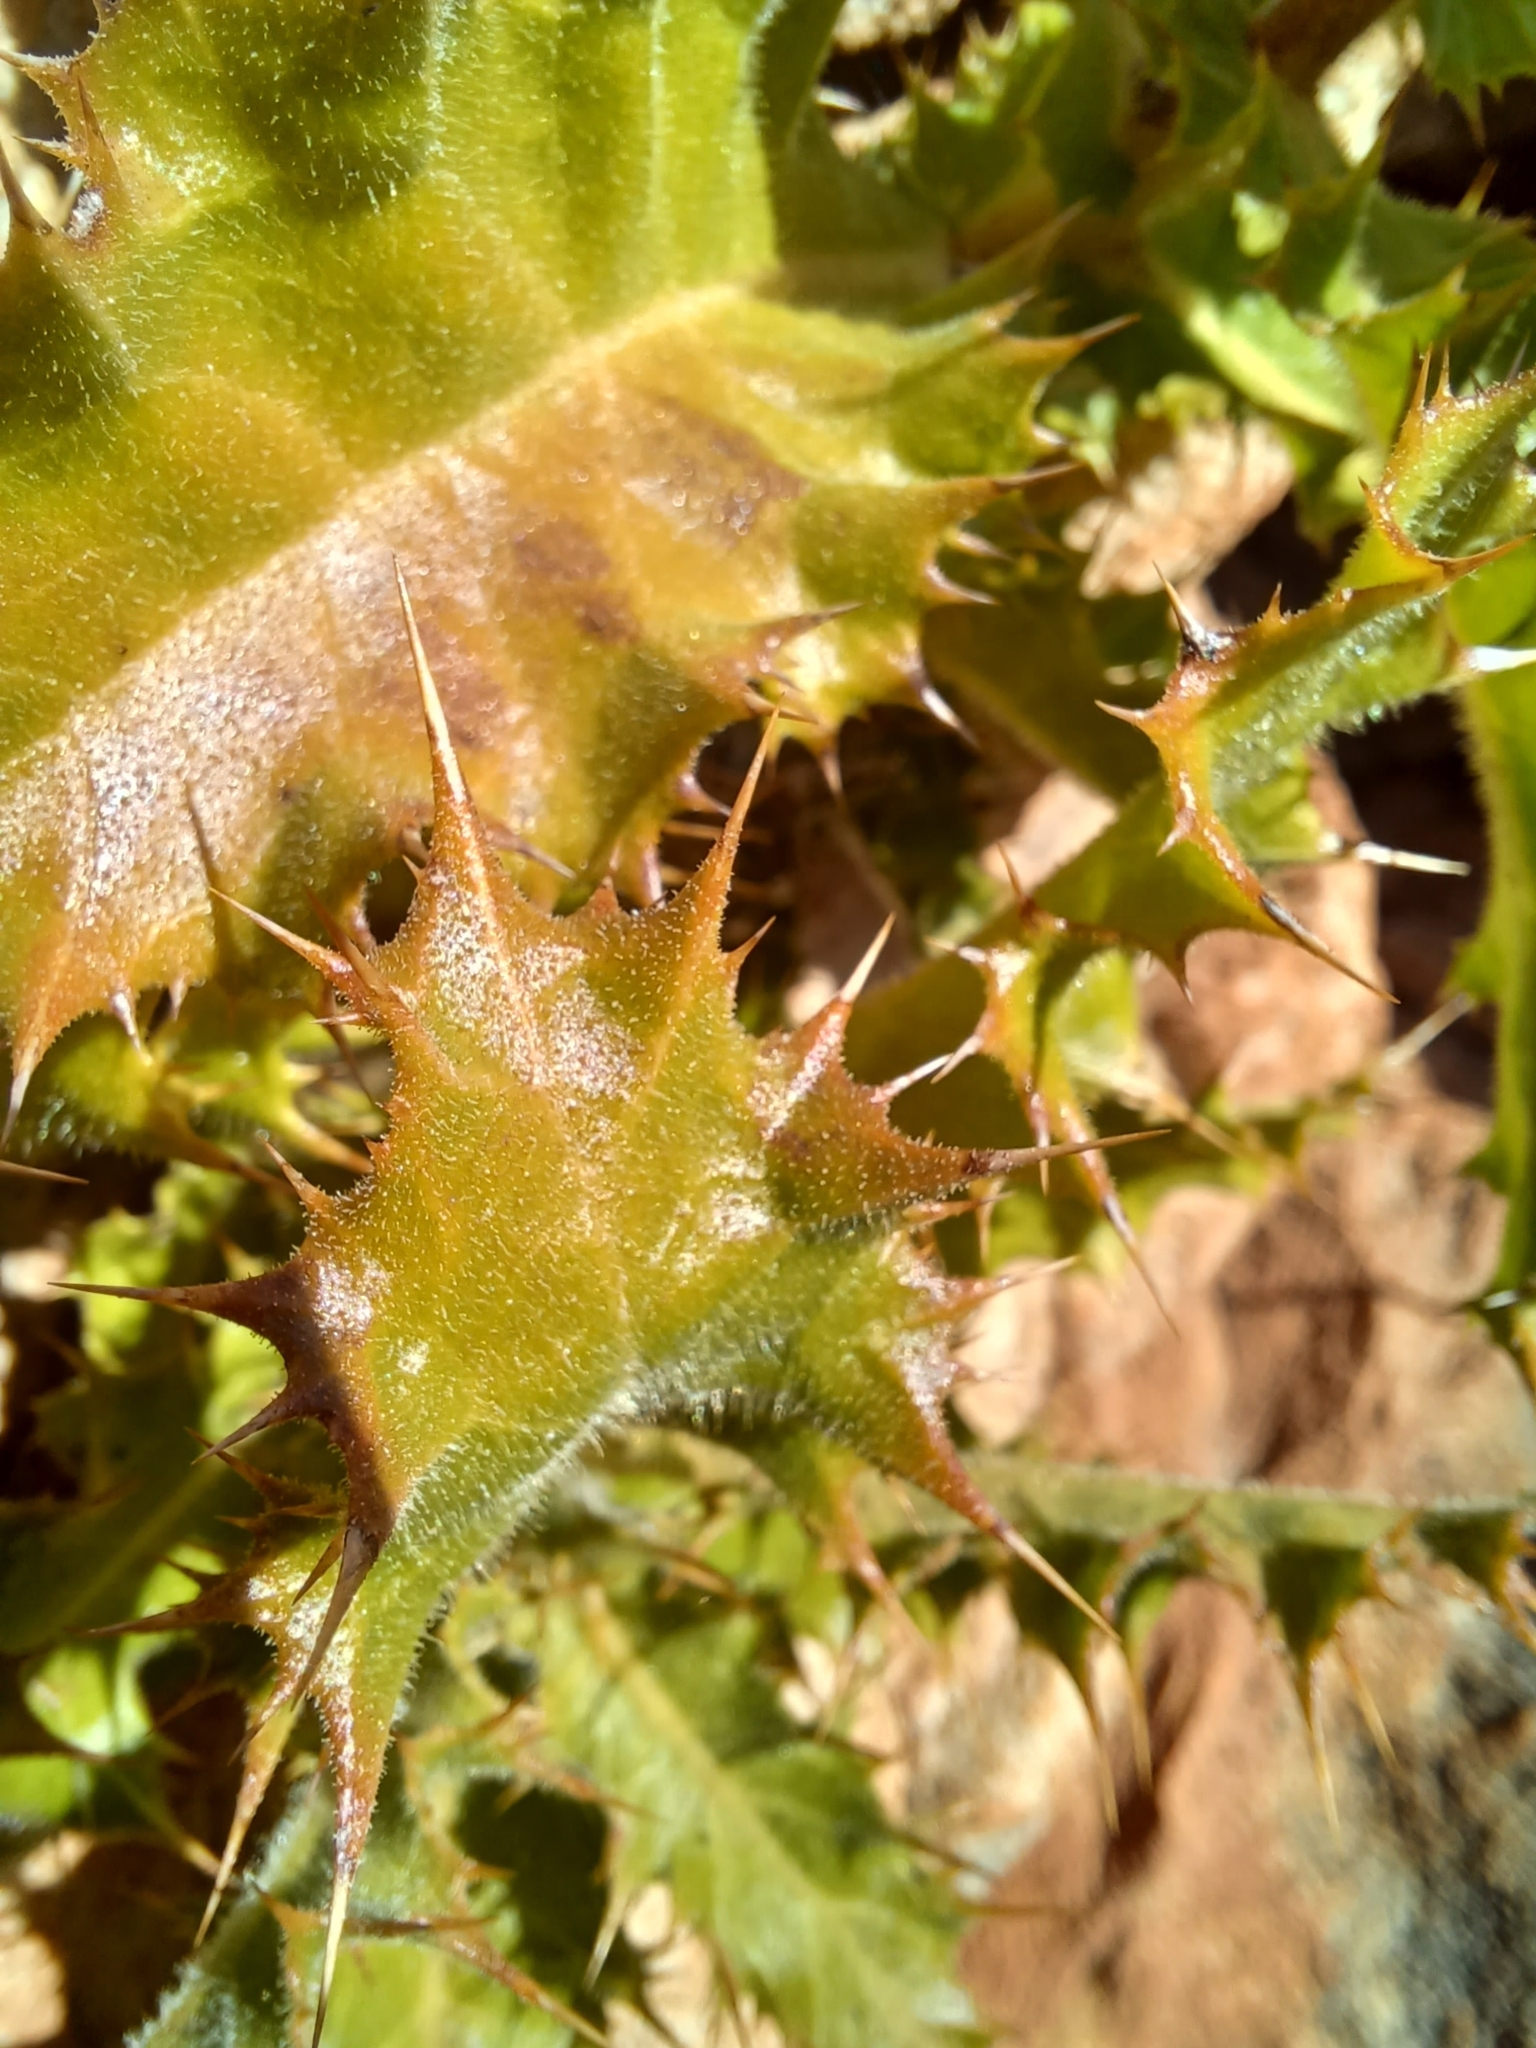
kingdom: Plantae
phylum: Tracheophyta
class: Magnoliopsida
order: Asterales
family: Asteraceae
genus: Berkheya
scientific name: Berkheya tysonii
